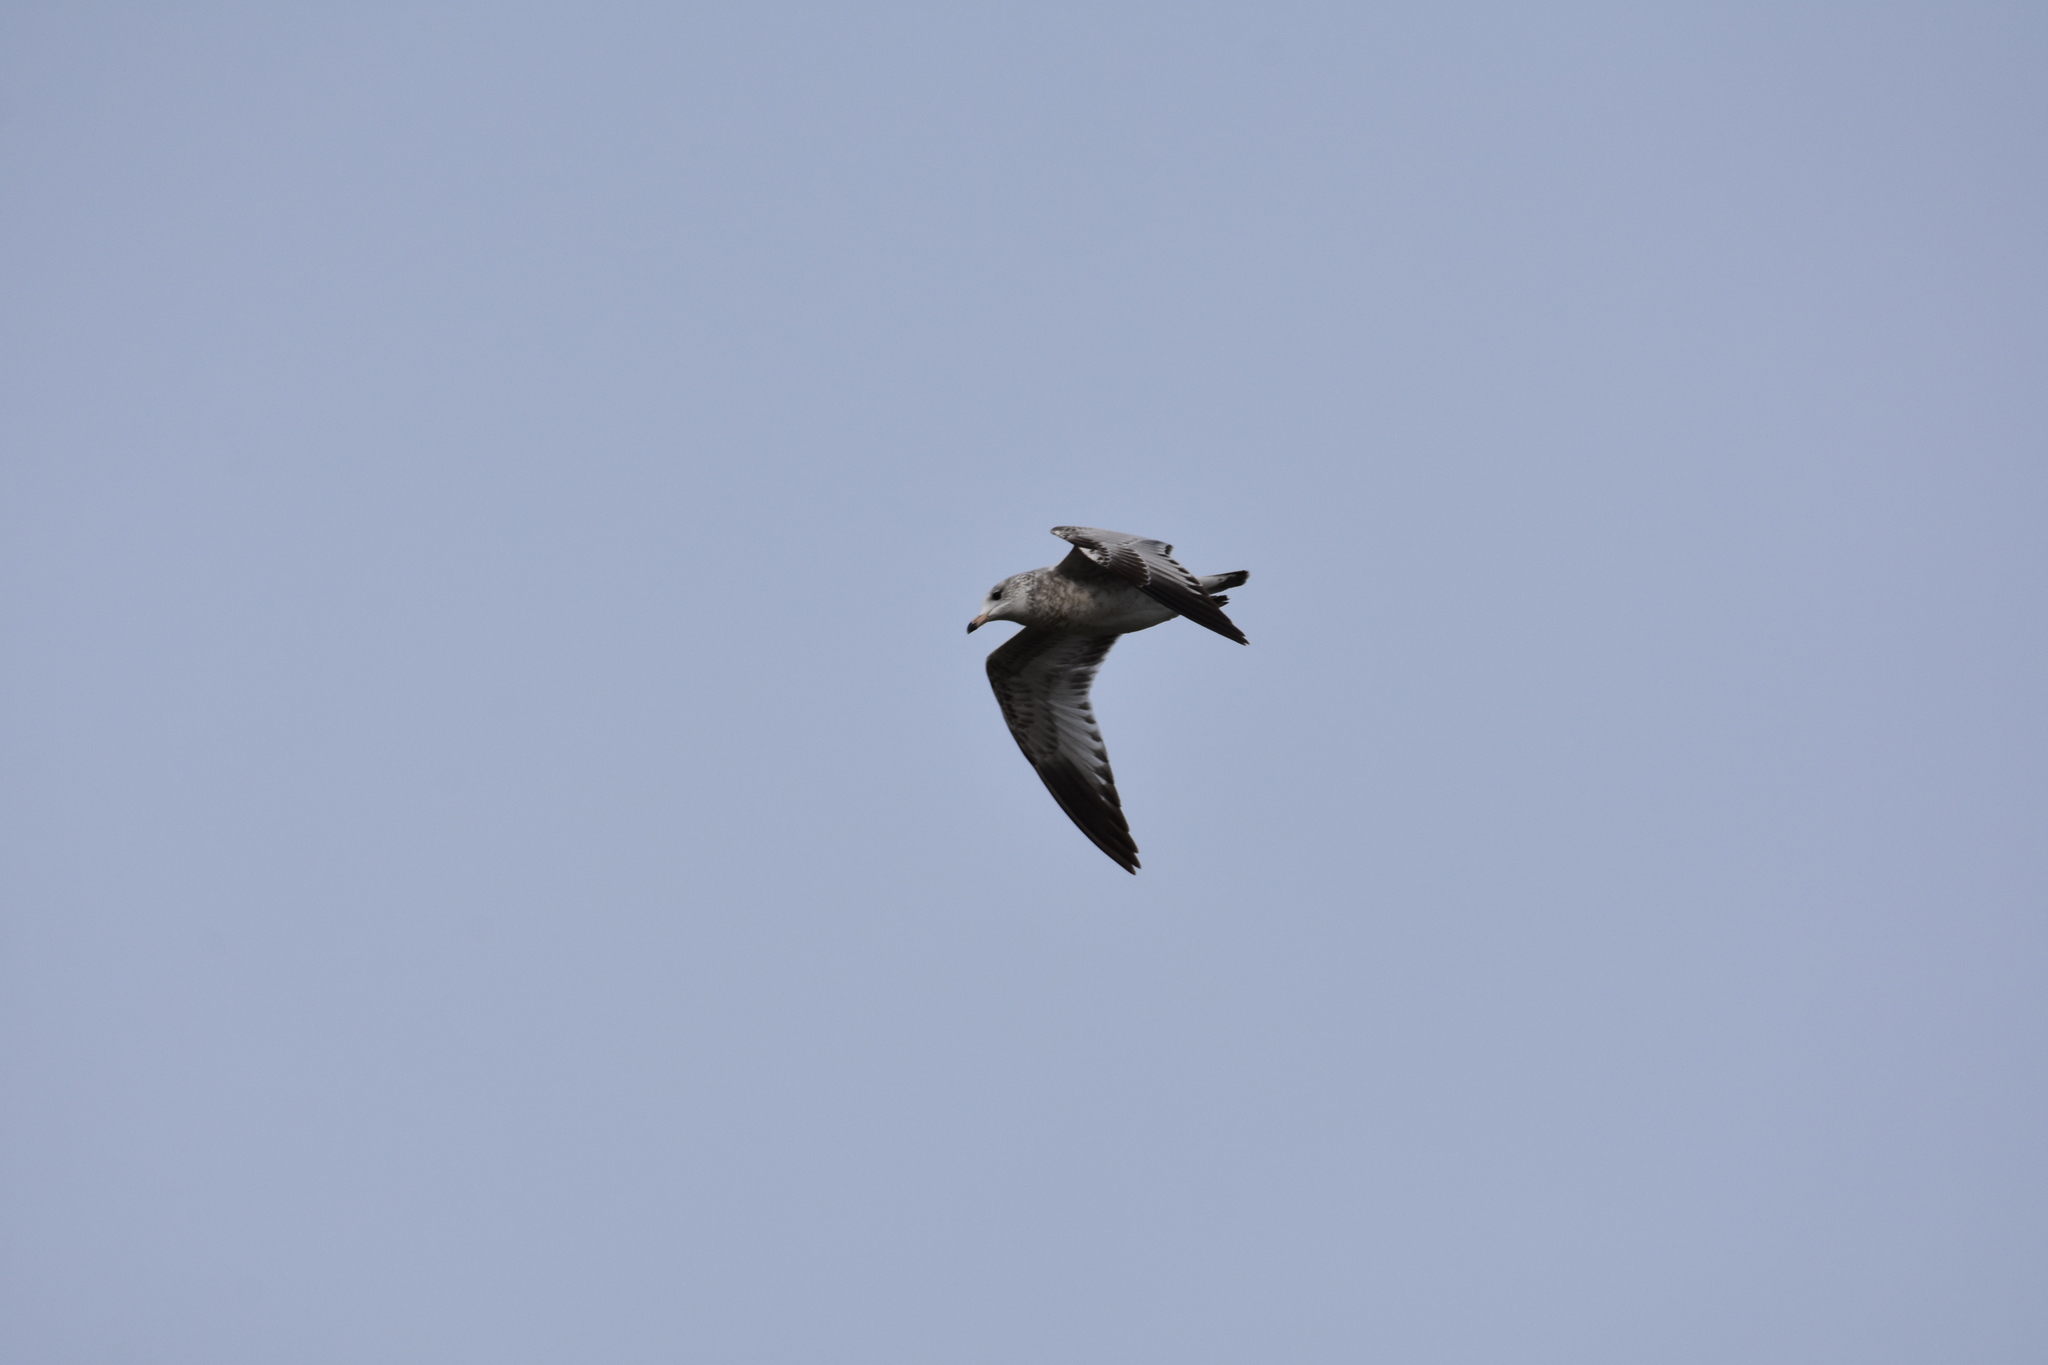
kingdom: Animalia
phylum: Chordata
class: Aves
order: Charadriiformes
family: Laridae
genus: Larus
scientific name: Larus delawarensis
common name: Ring-billed gull
